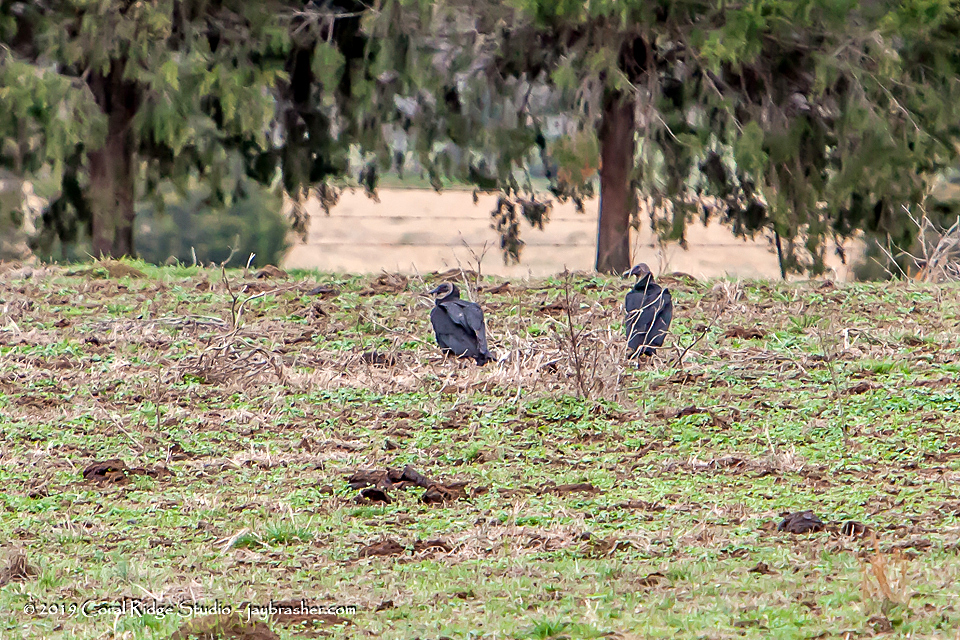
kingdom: Animalia
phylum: Chordata
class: Aves
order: Accipitriformes
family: Cathartidae
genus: Coragyps
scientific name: Coragyps atratus
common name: Black vulture
